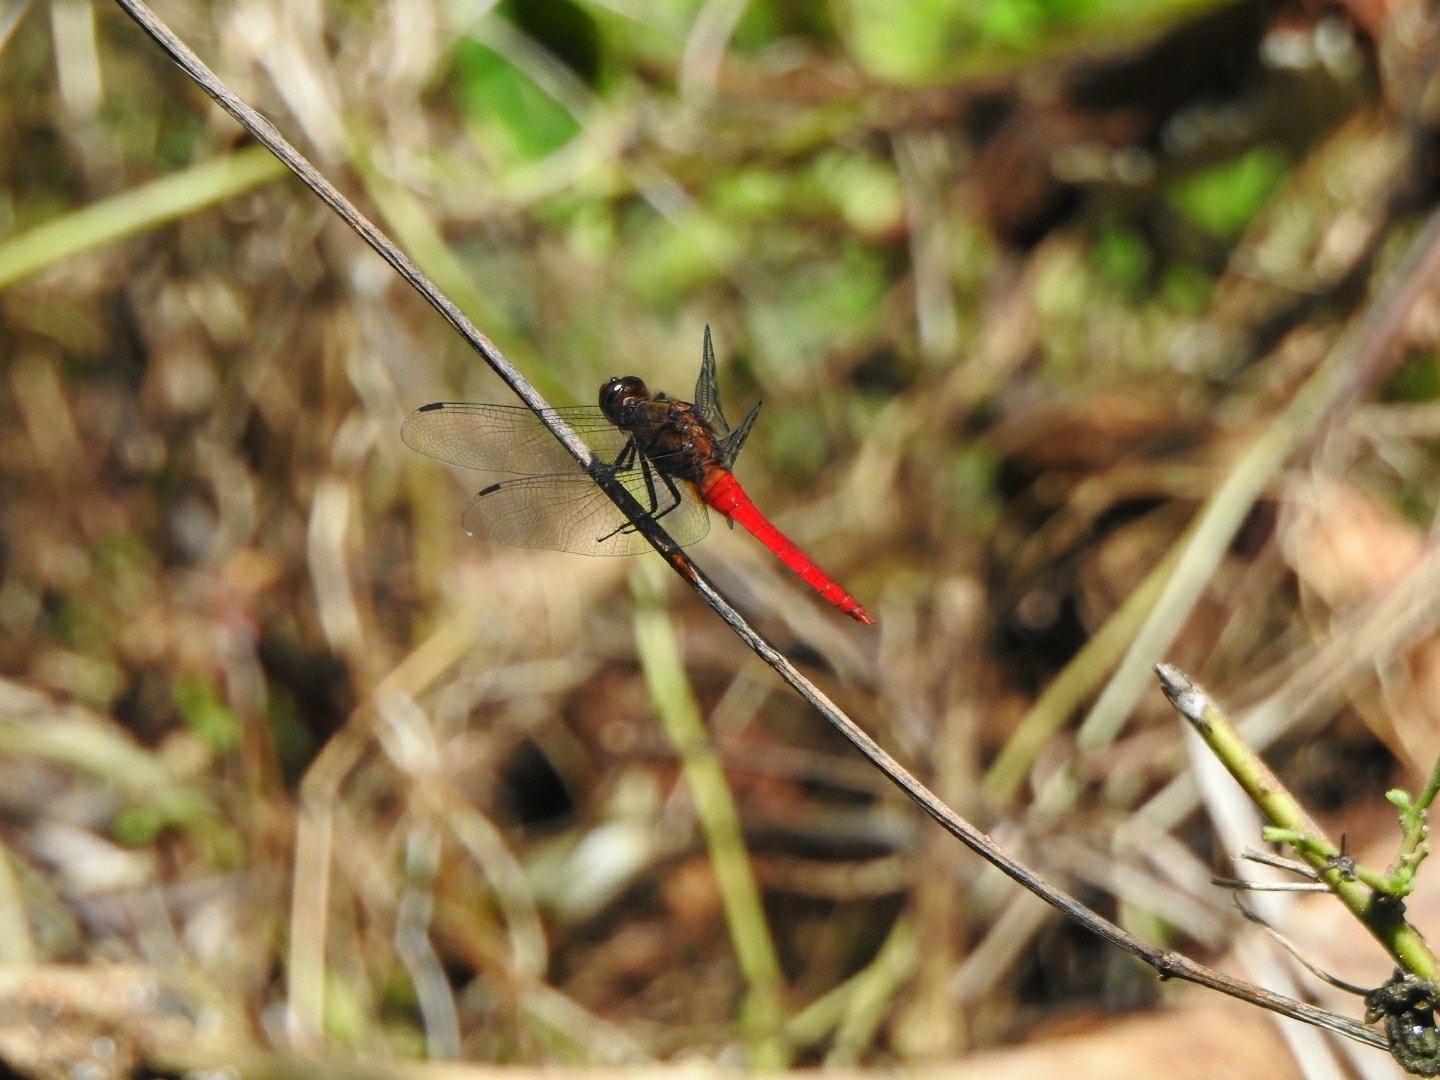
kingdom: Animalia
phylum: Arthropoda
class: Insecta
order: Odonata
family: Libellulidae
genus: Orthetrum
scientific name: Orthetrum chrysis
